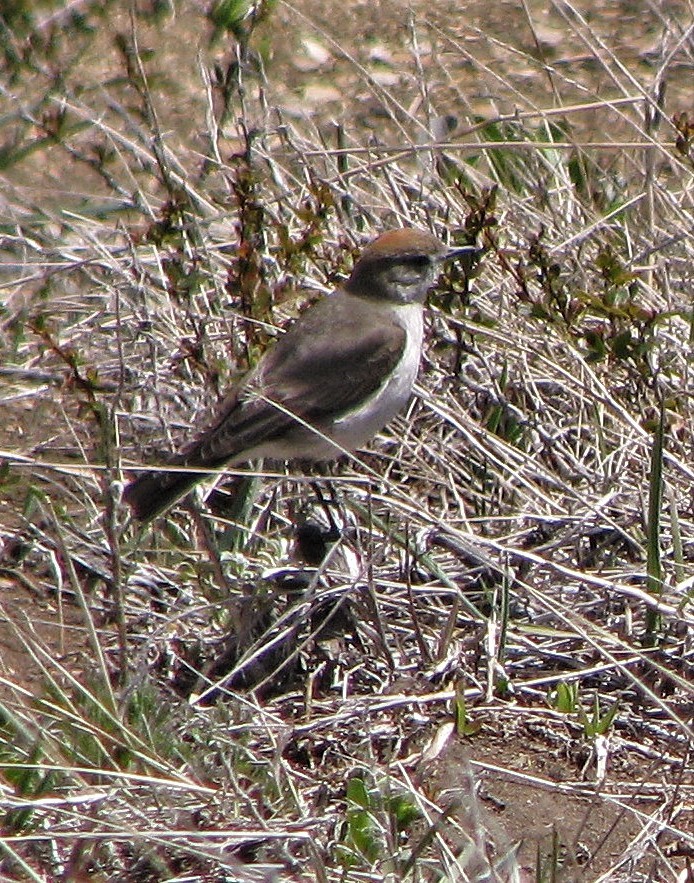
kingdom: Animalia
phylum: Chordata
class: Aves
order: Passeriformes
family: Tyrannidae
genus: Muscisaxicola
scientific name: Muscisaxicola albilora
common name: White-browed ground tyrant
